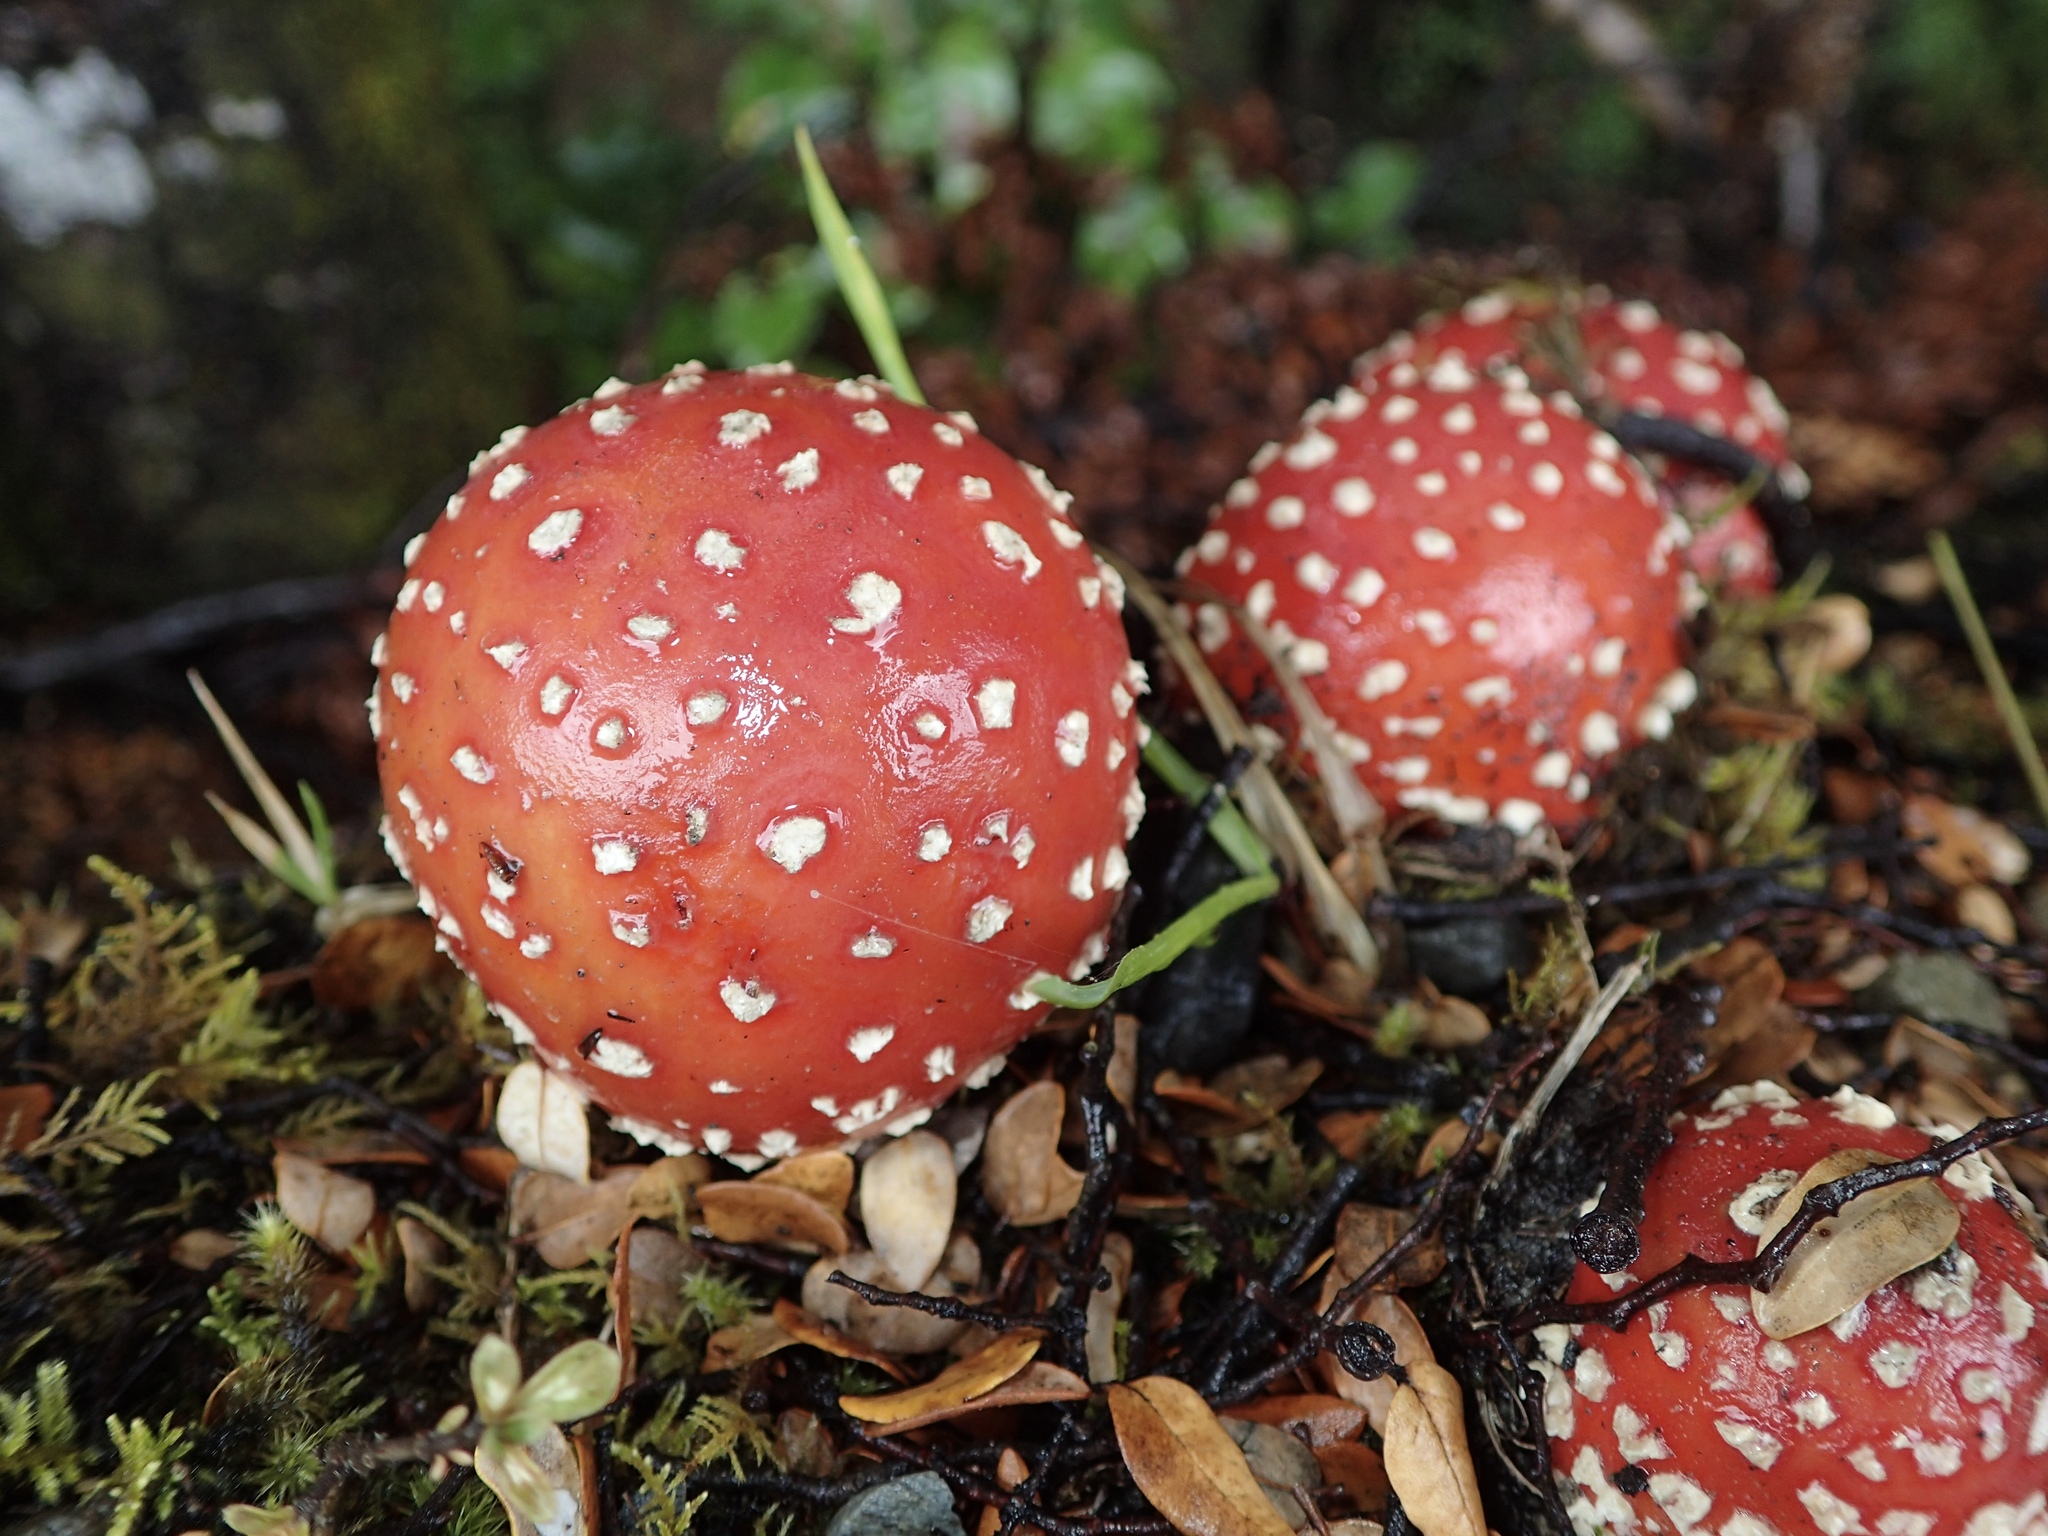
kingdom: Fungi
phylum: Basidiomycota
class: Agaricomycetes
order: Agaricales
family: Amanitaceae
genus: Amanita
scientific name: Amanita muscaria
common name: Fly agaric
